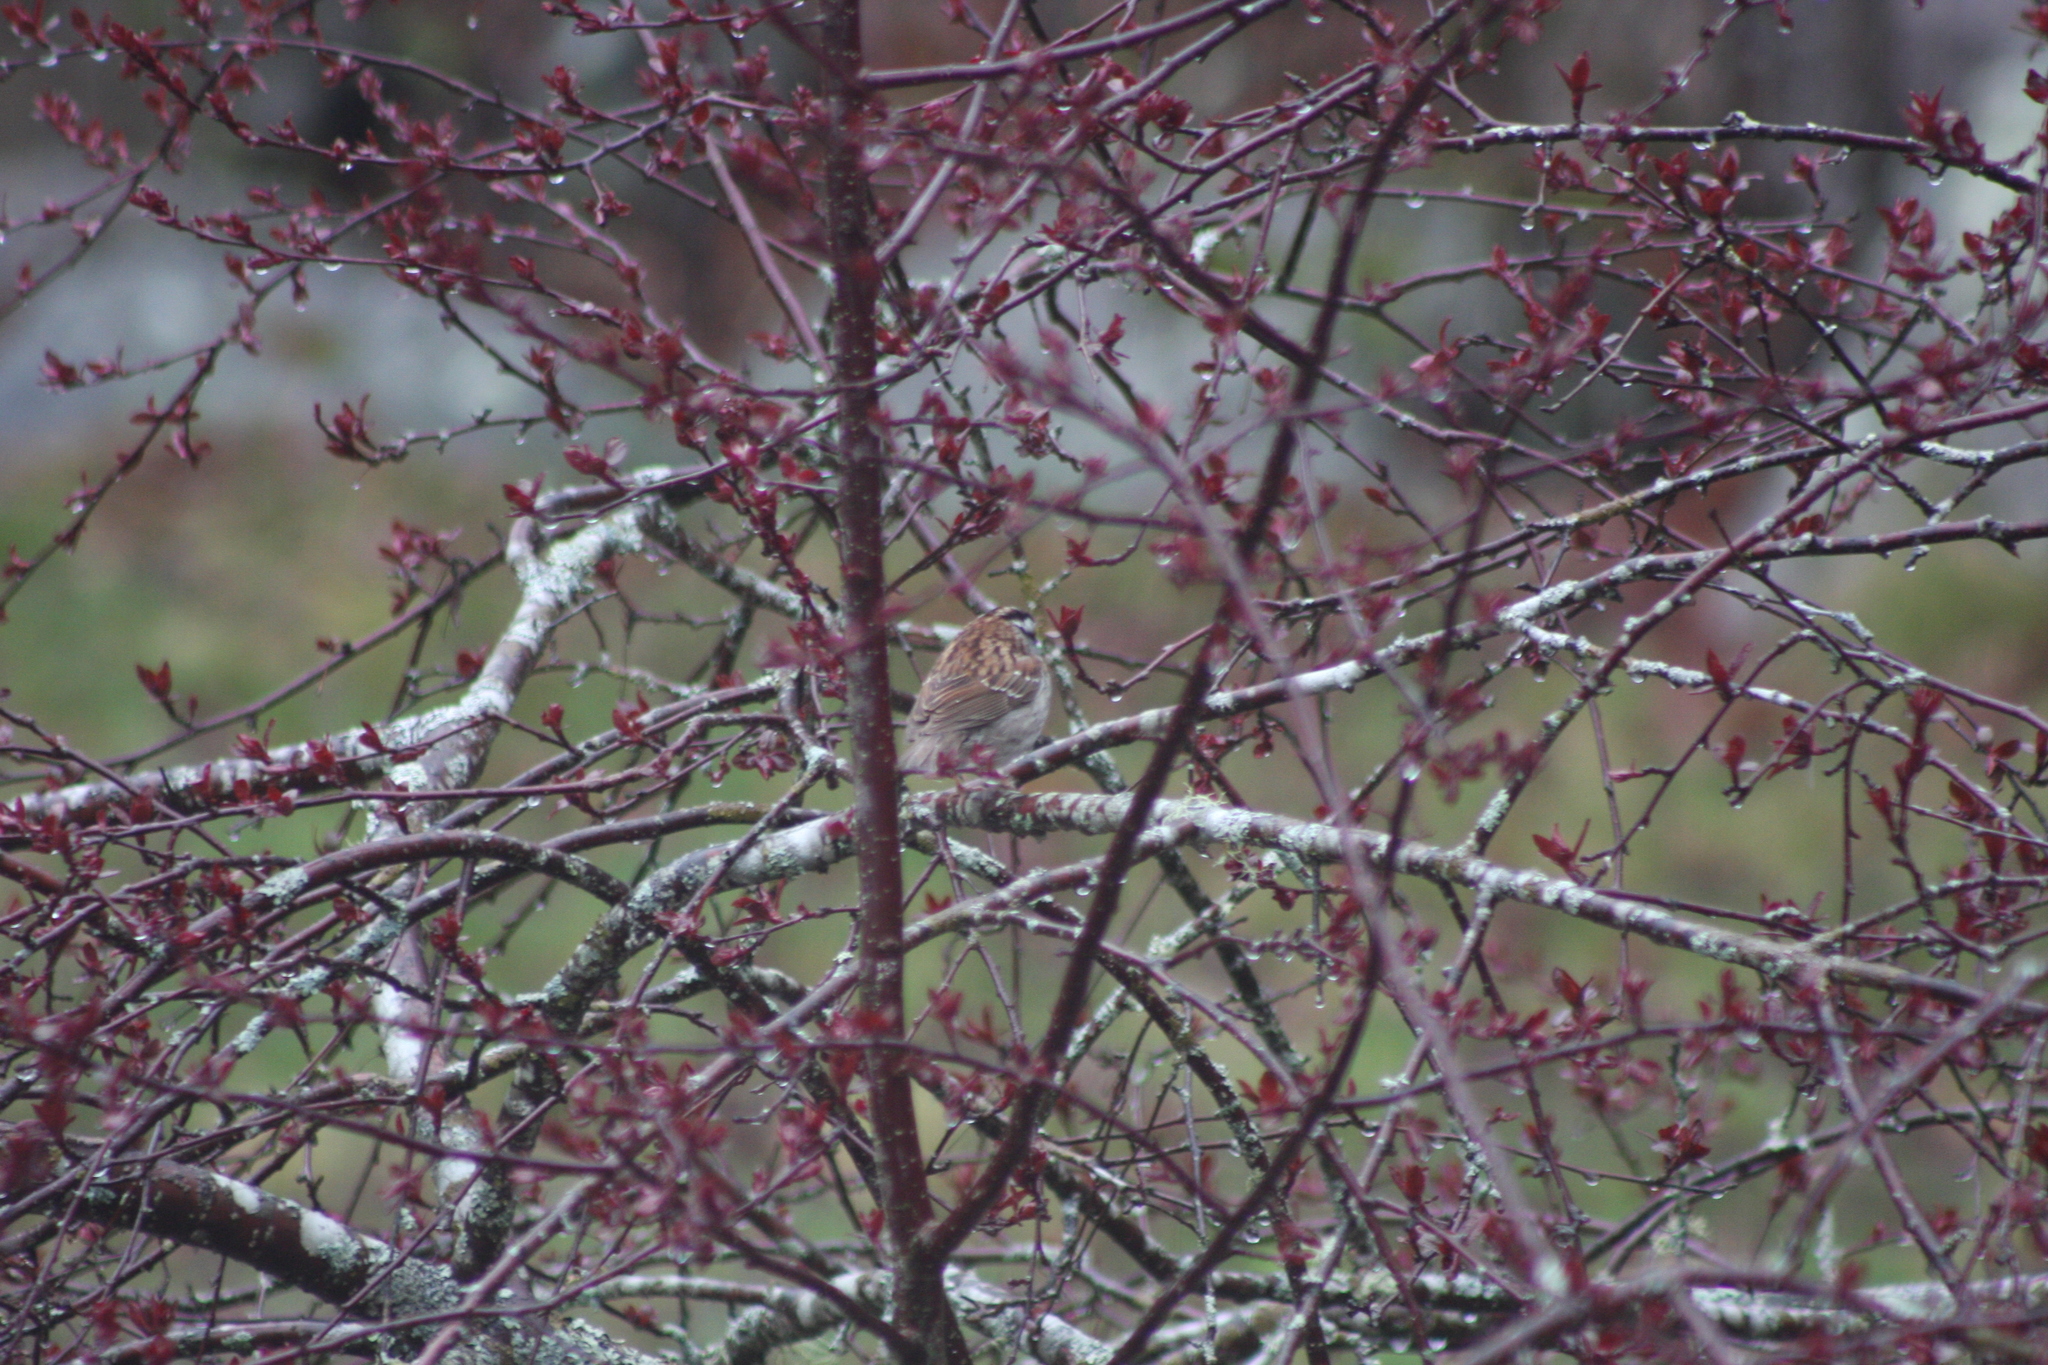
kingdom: Animalia
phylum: Chordata
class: Aves
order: Passeriformes
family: Passerellidae
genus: Zonotrichia
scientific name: Zonotrichia albicollis
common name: White-throated sparrow
